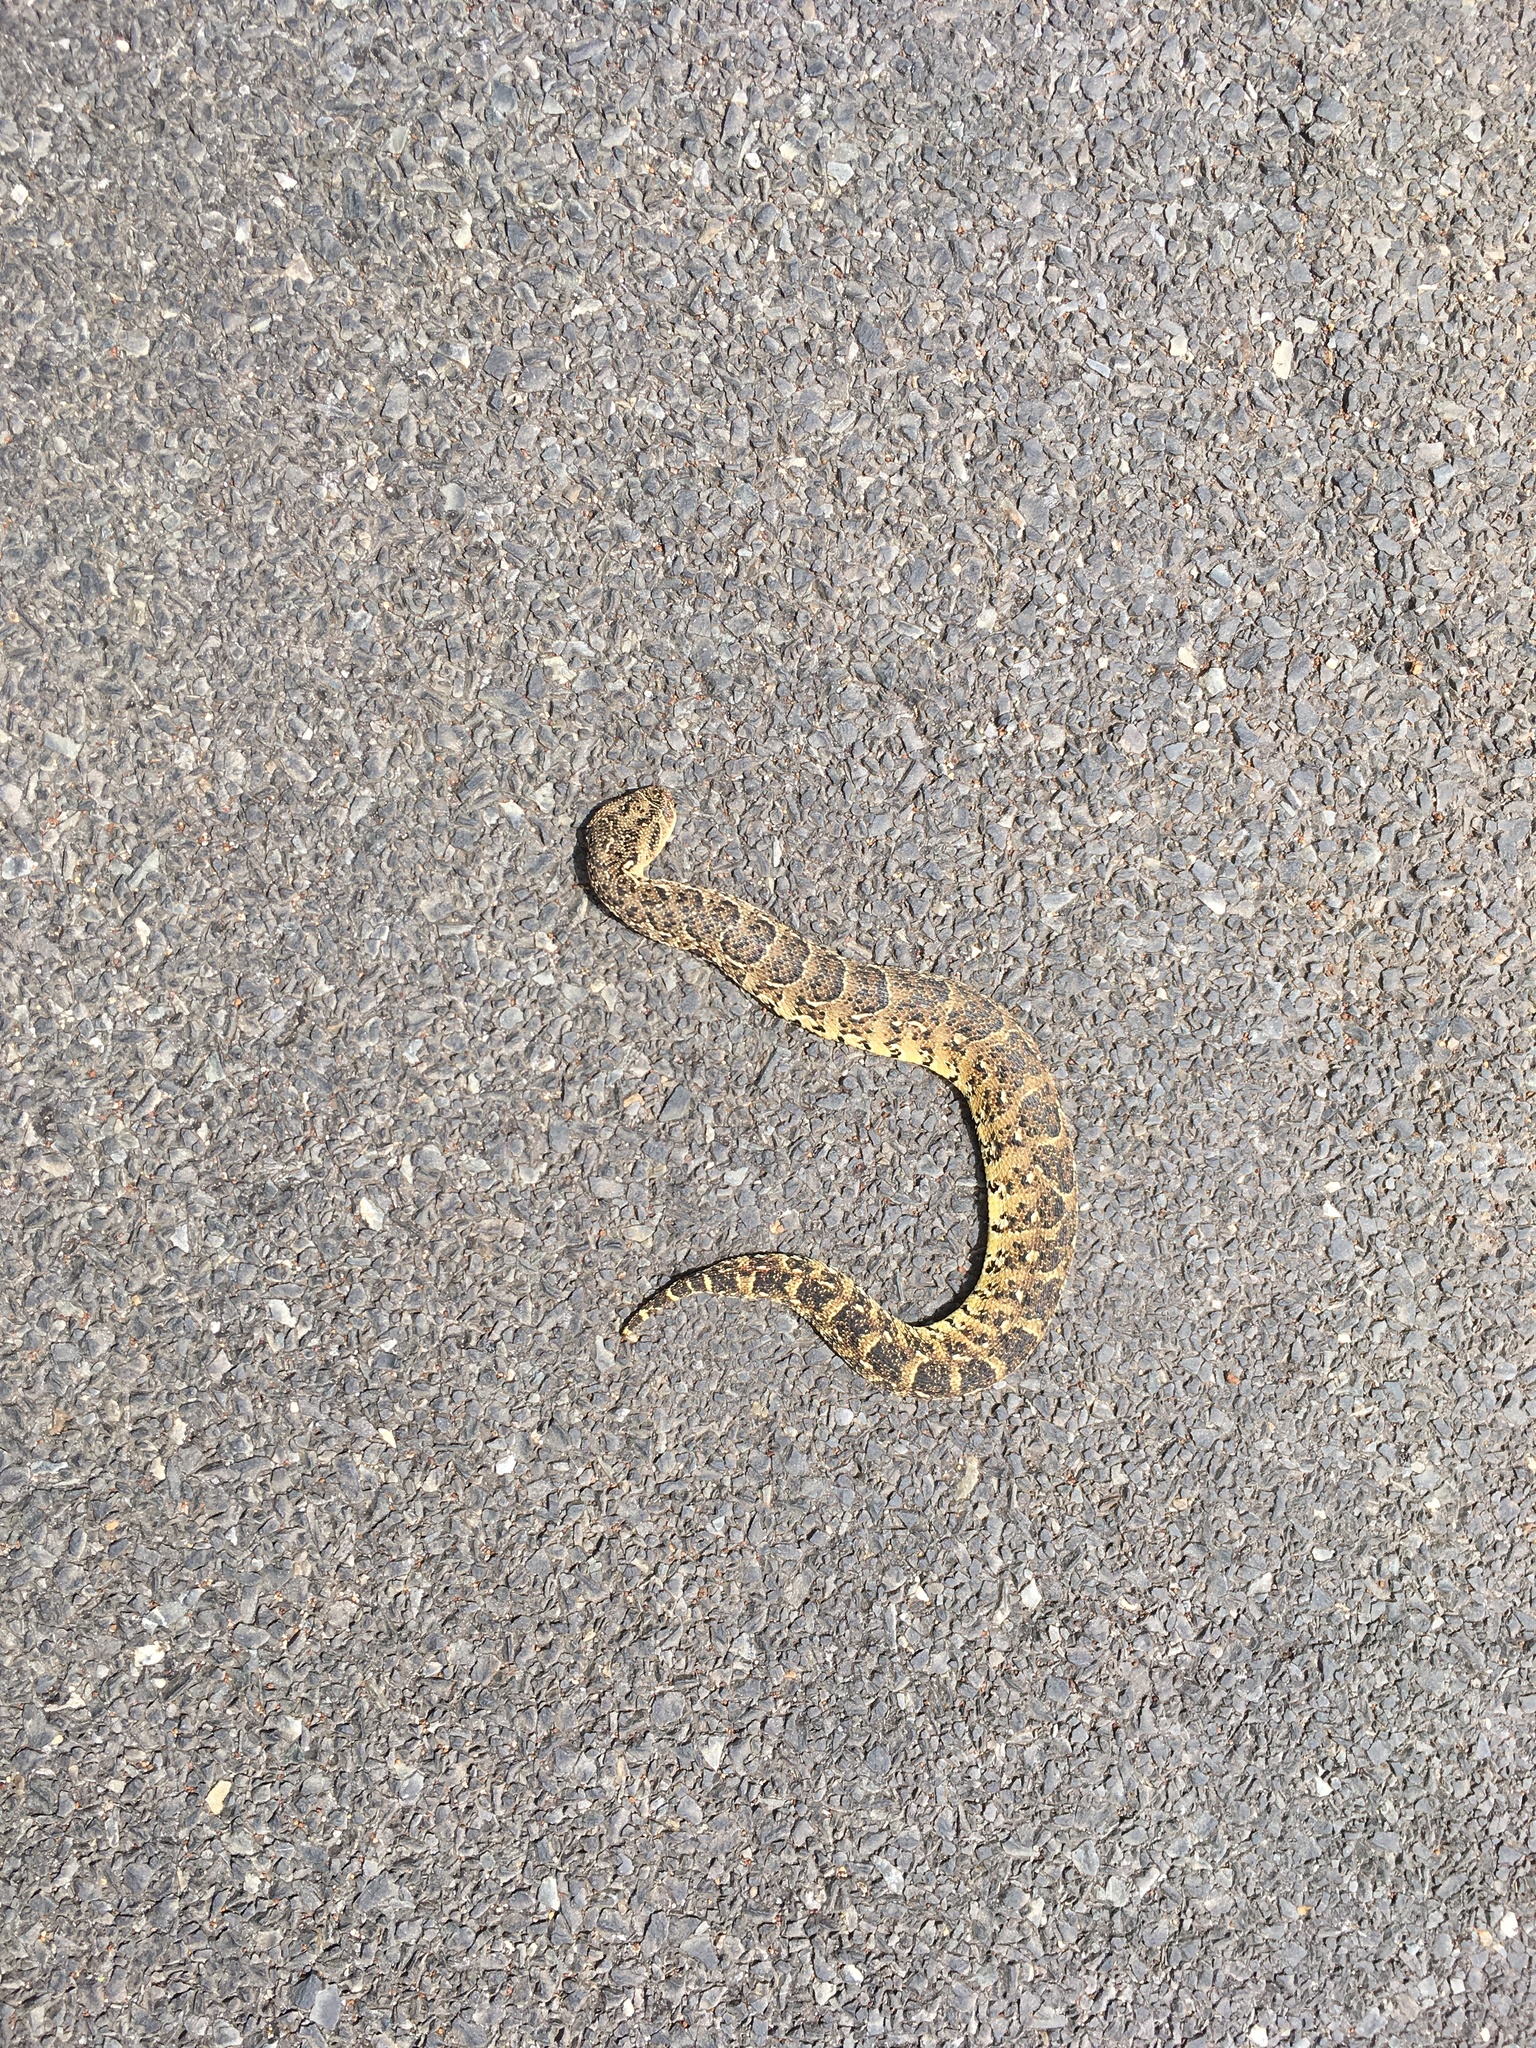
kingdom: Animalia
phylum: Chordata
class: Squamata
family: Viperidae
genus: Bitis
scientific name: Bitis arietans
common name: Puff adder
